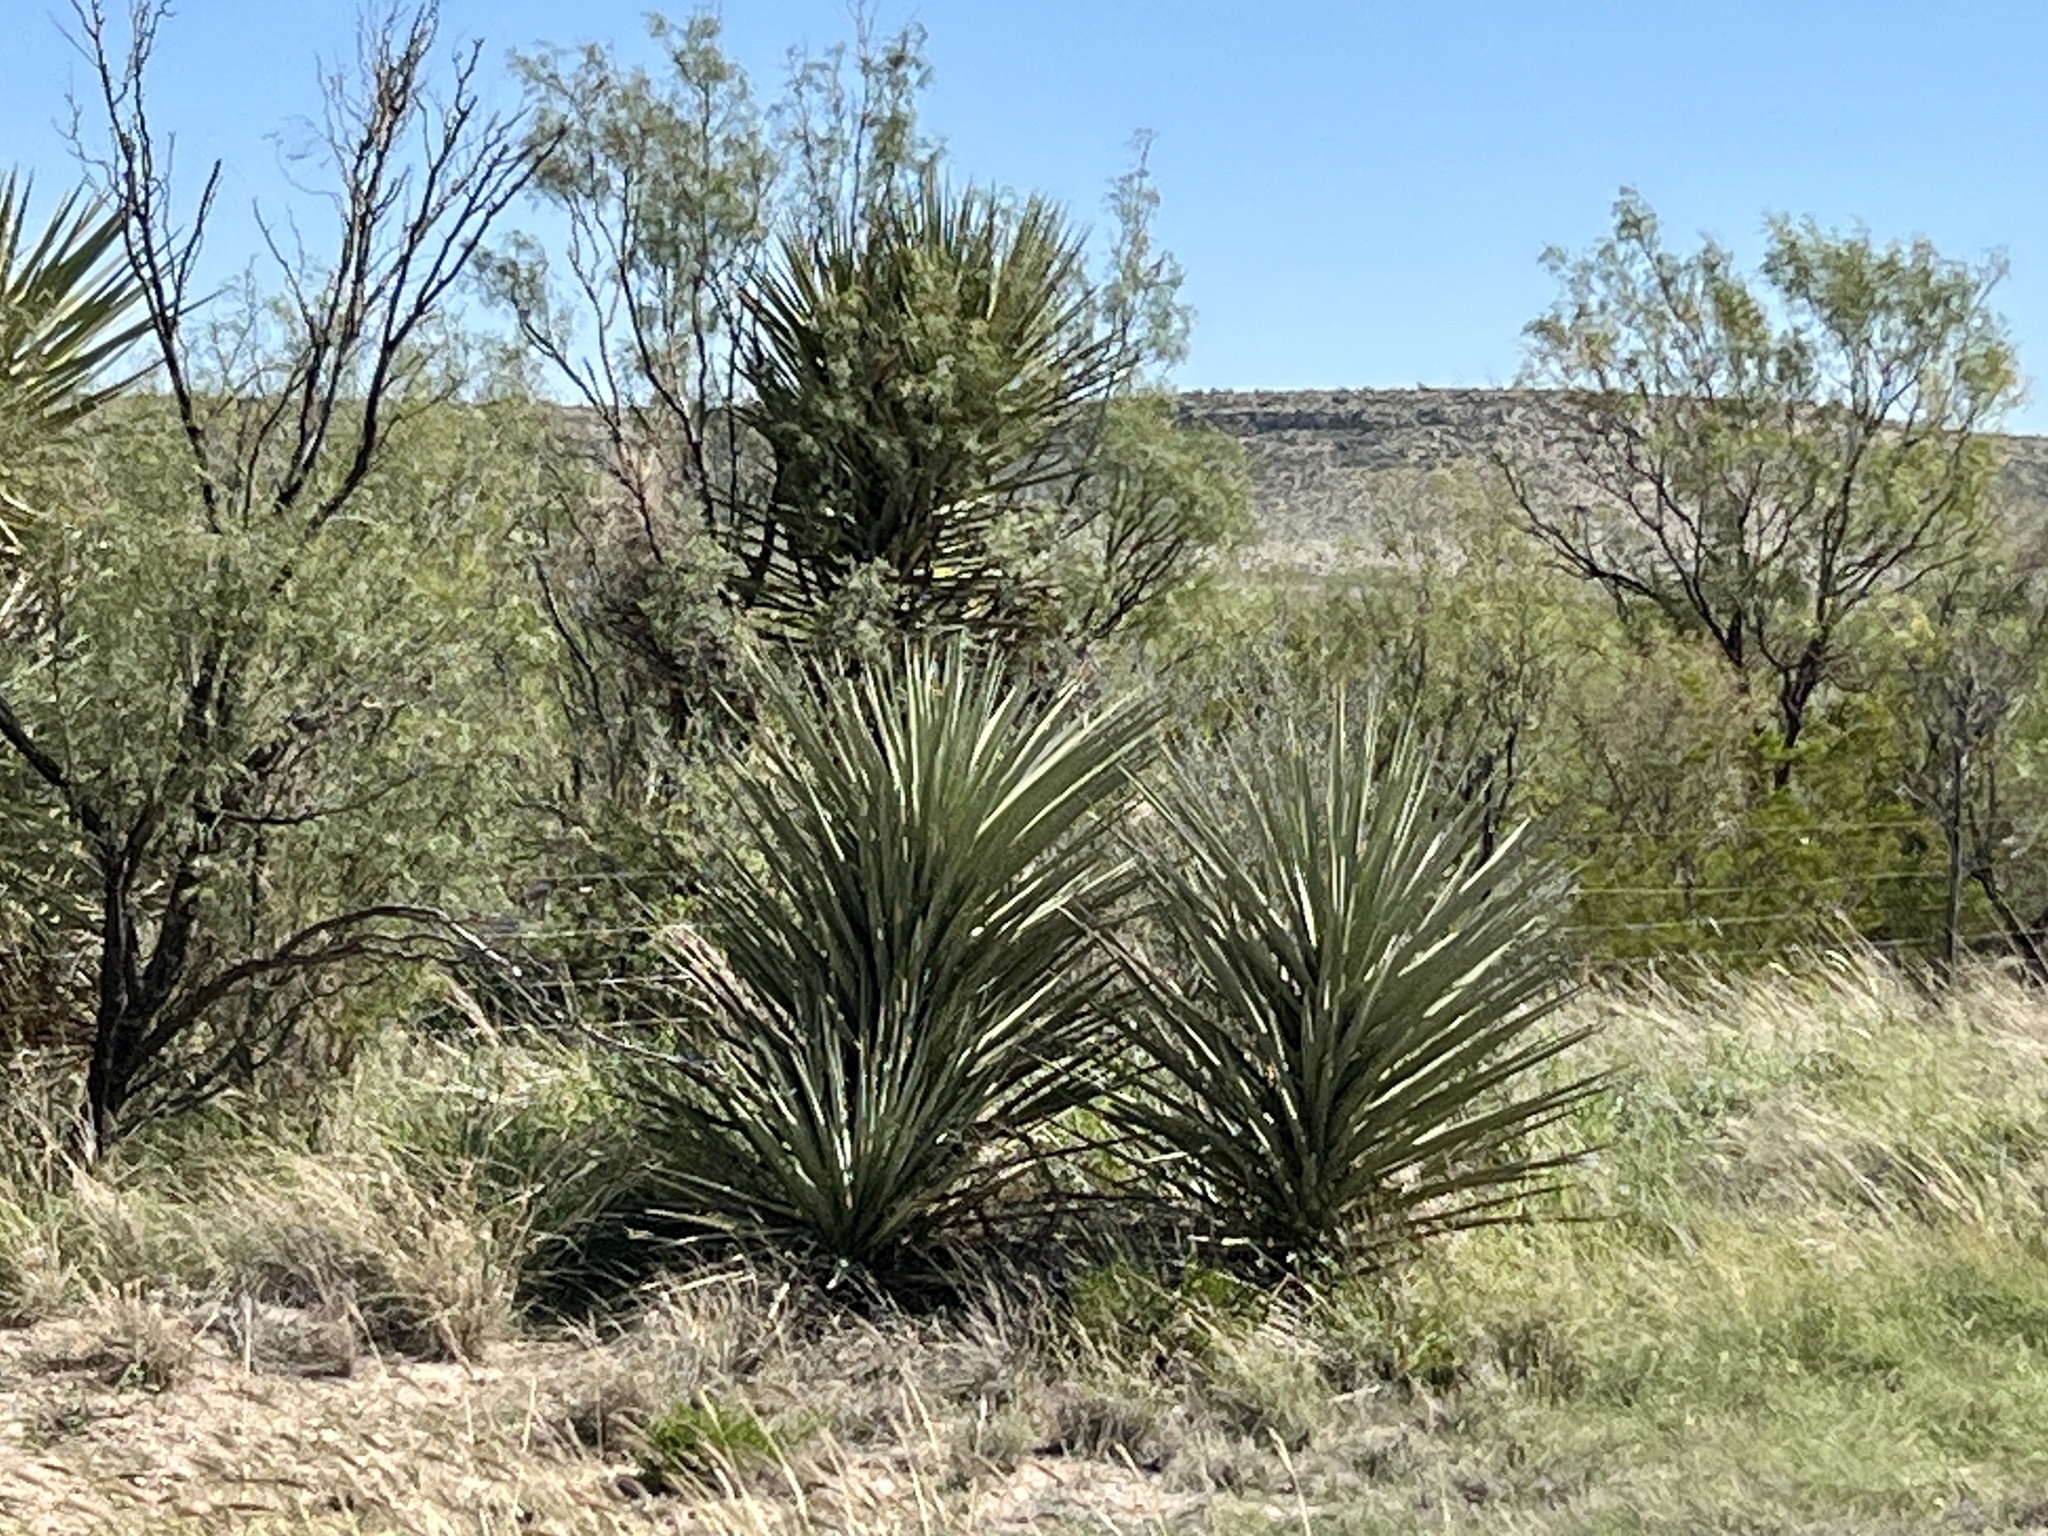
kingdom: Plantae
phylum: Tracheophyta
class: Liliopsida
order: Asparagales
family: Asparagaceae
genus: Yucca
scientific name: Yucca treculiana
